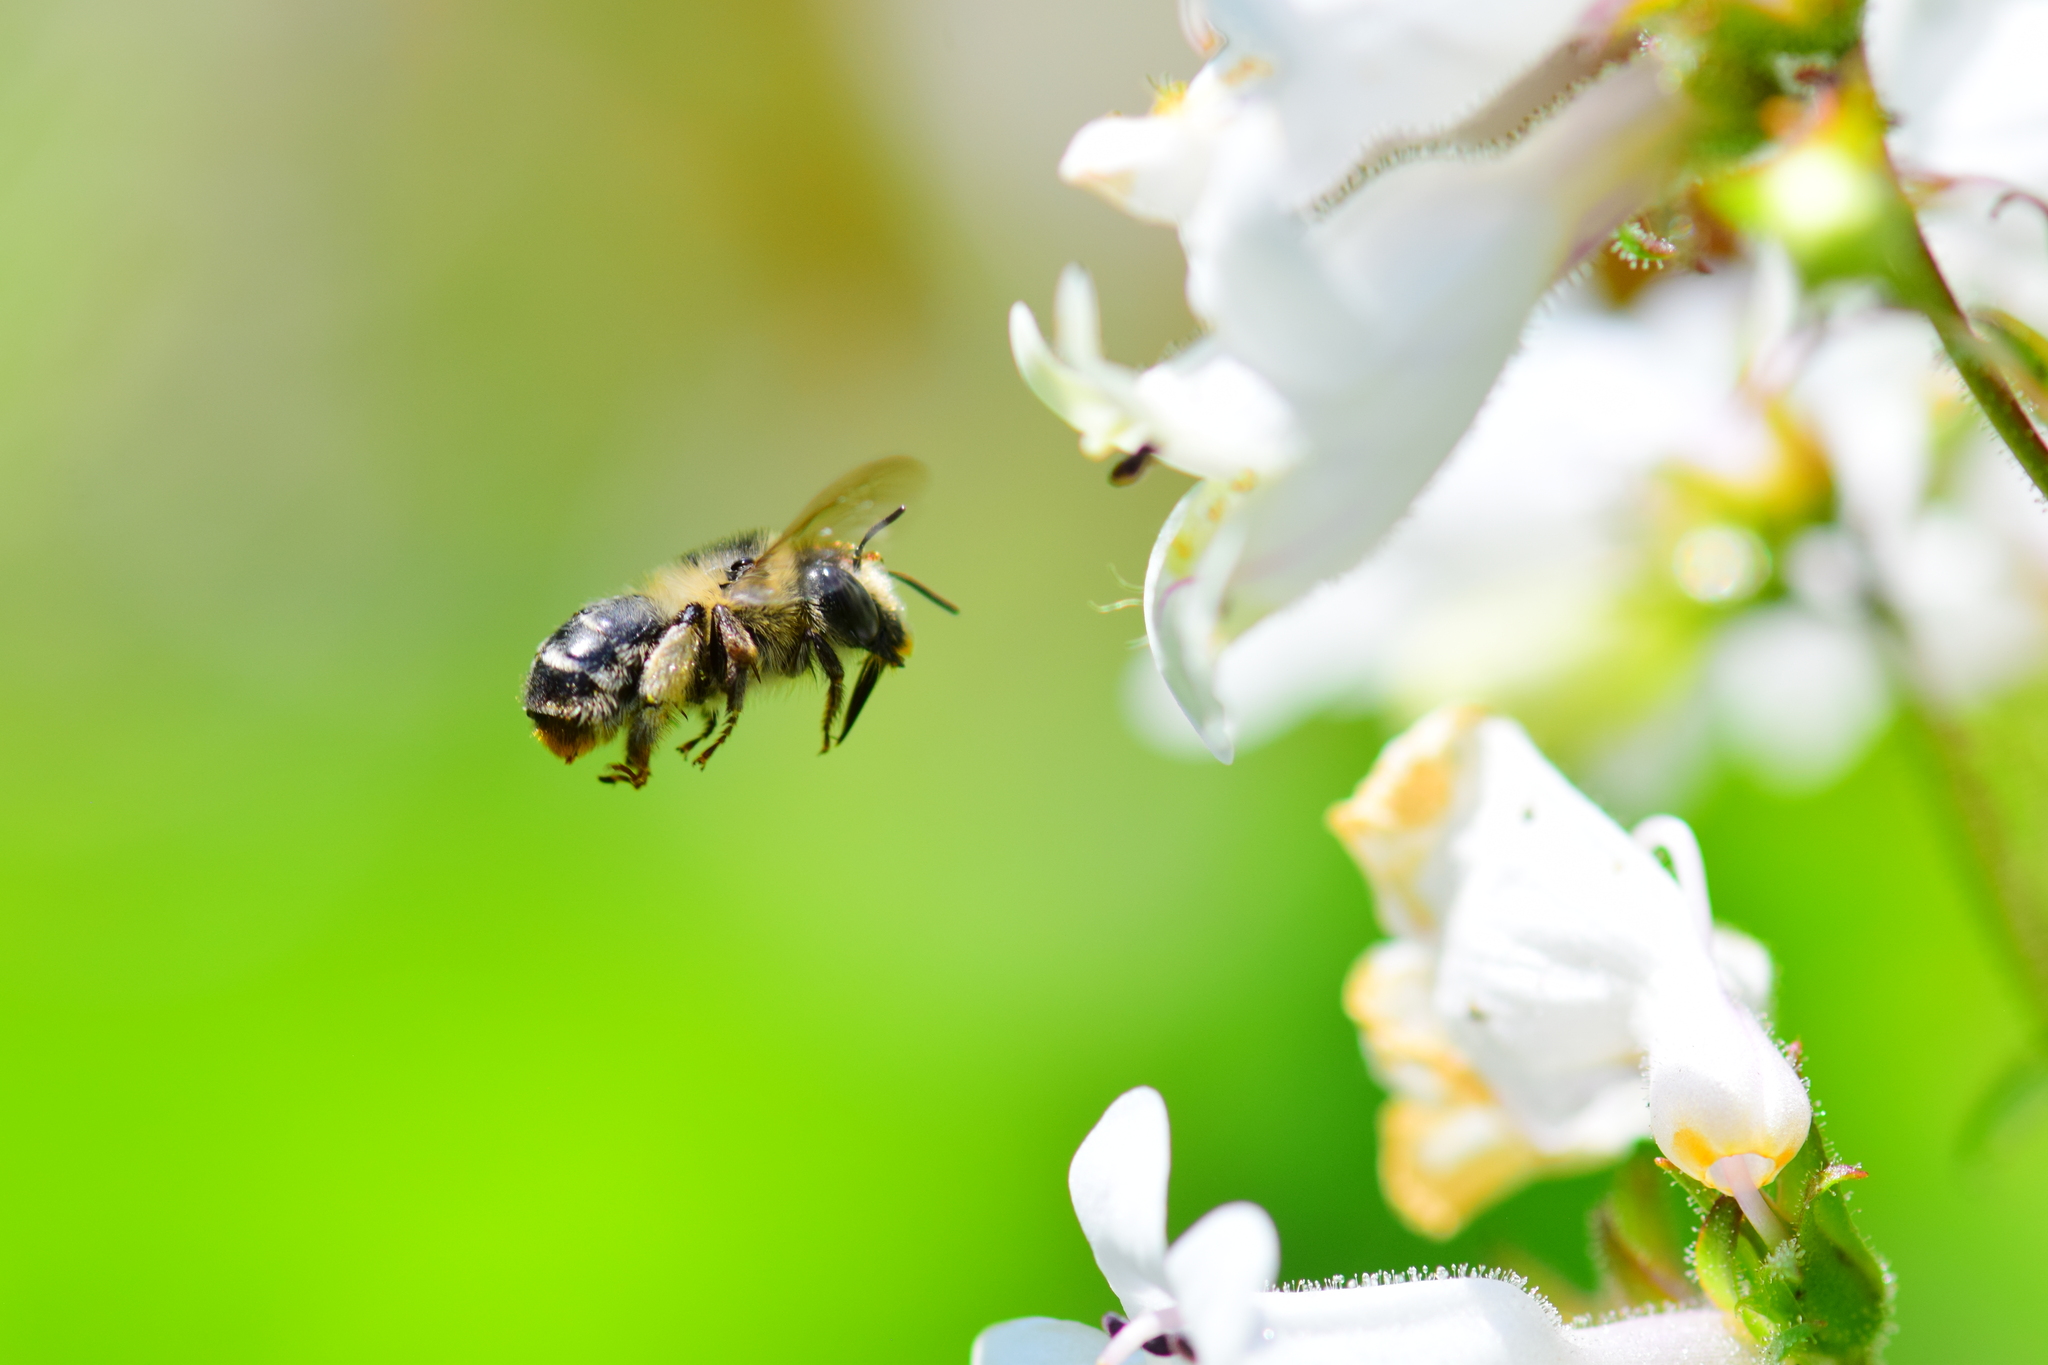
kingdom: Animalia
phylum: Arthropoda
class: Insecta
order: Hymenoptera
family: Apidae
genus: Anthophora
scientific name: Anthophora terminalis
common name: Orange-tipped wood-digger bee
